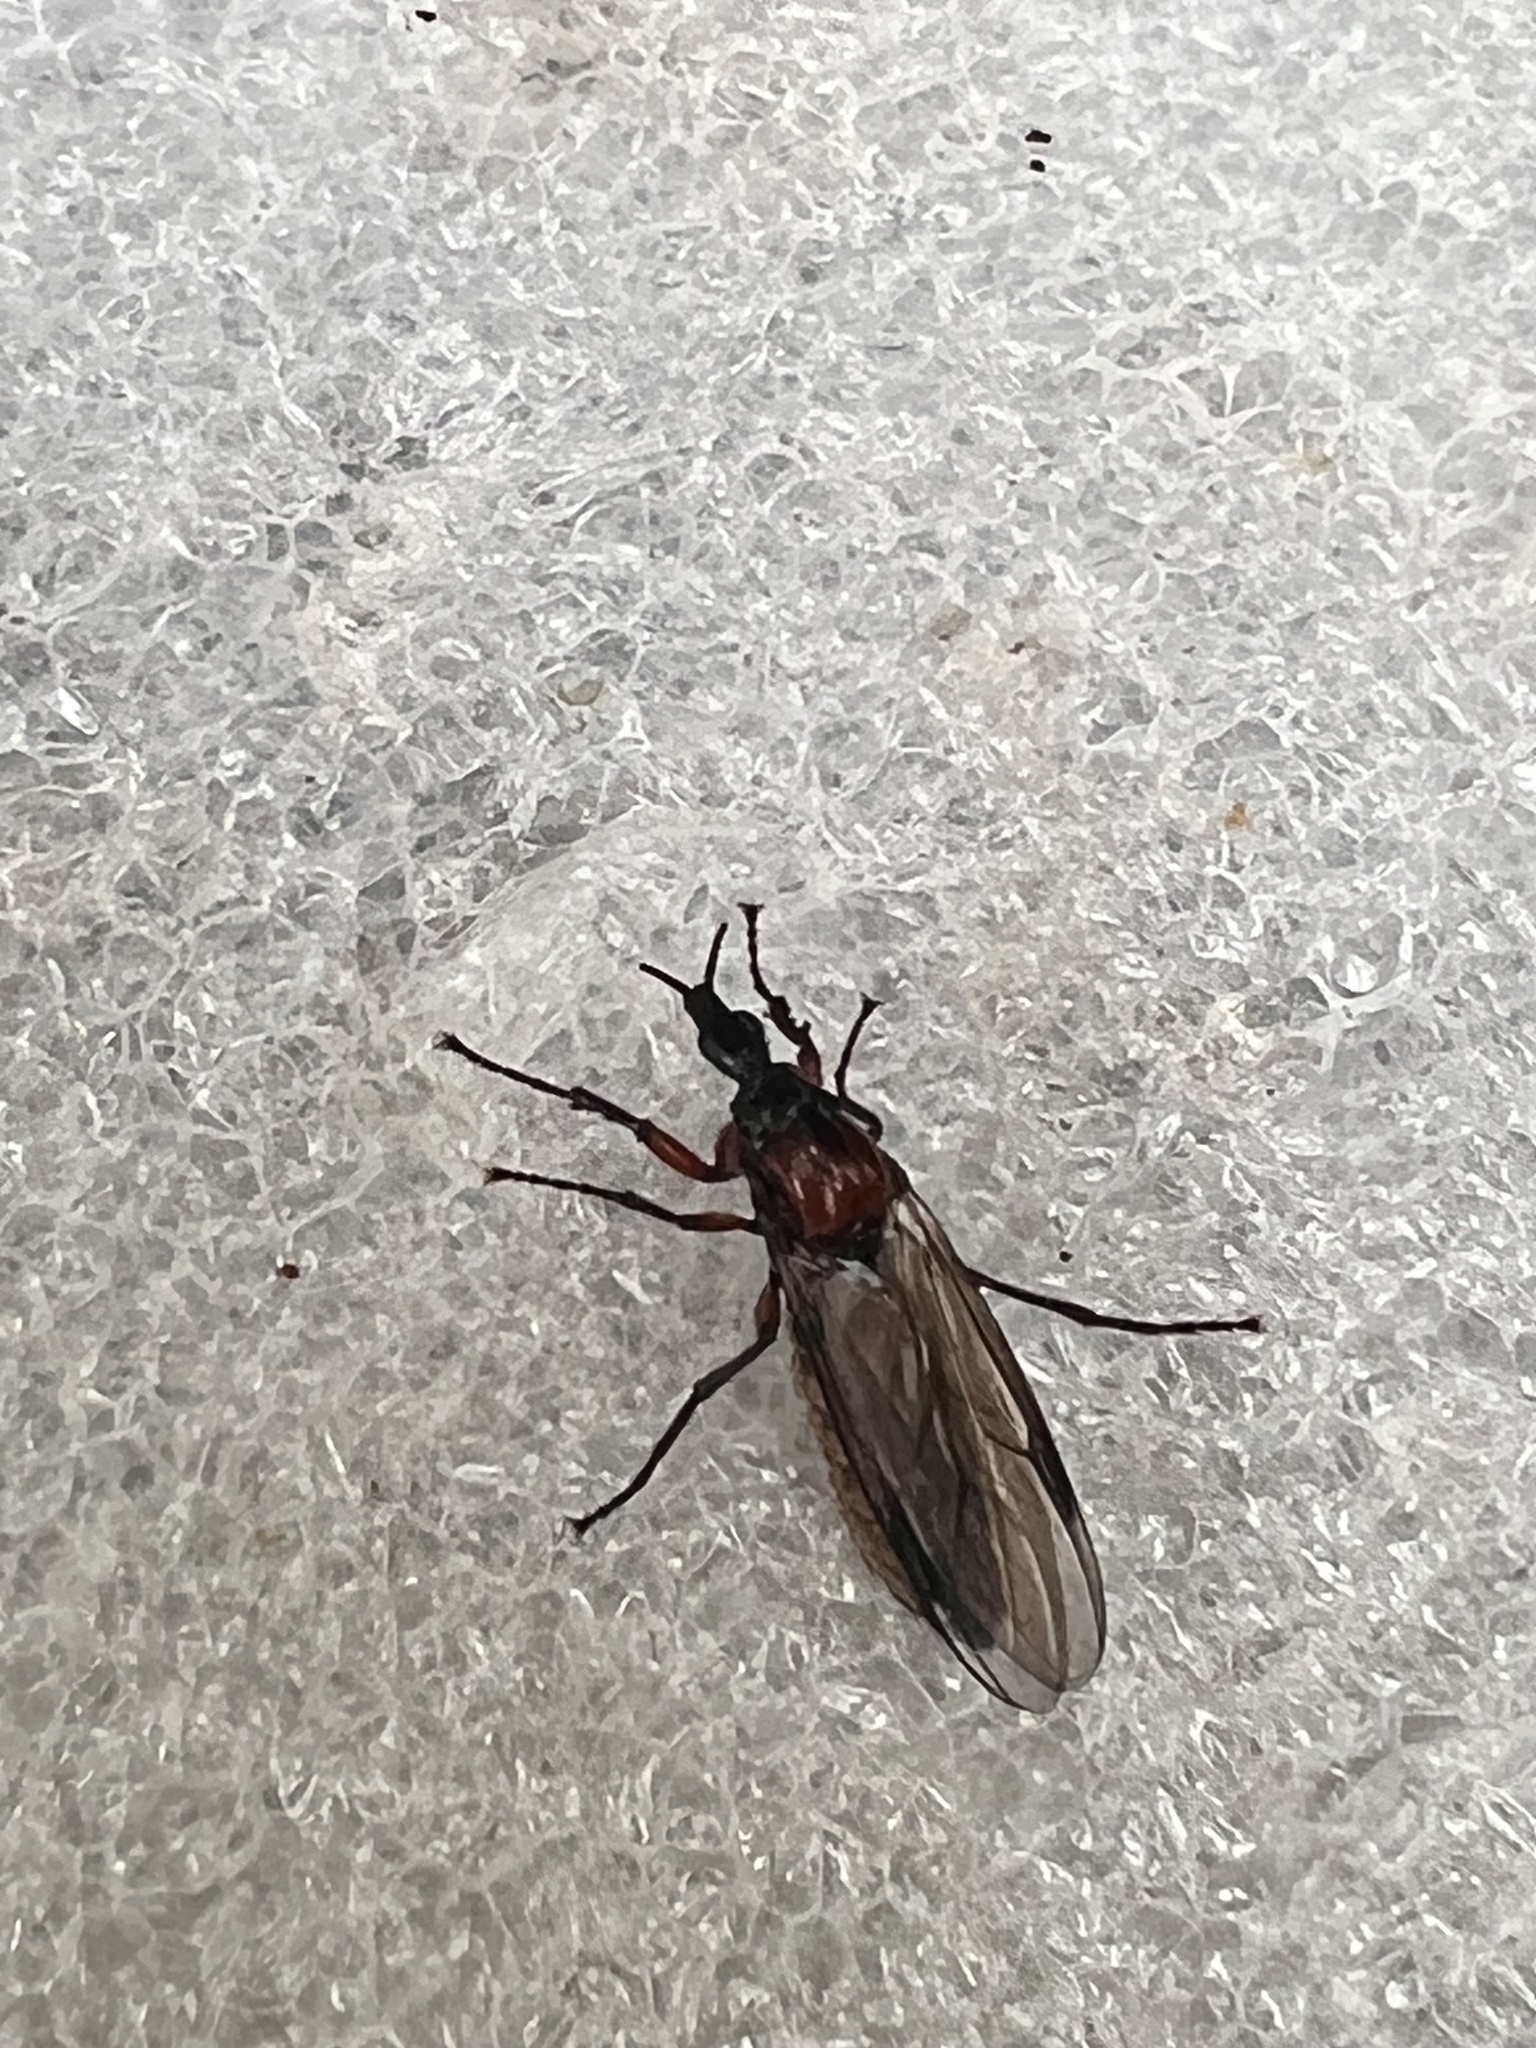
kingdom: Animalia
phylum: Arthropoda
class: Insecta
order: Diptera
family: Bibionidae
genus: Dilophus
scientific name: Dilophus nigrostigma
